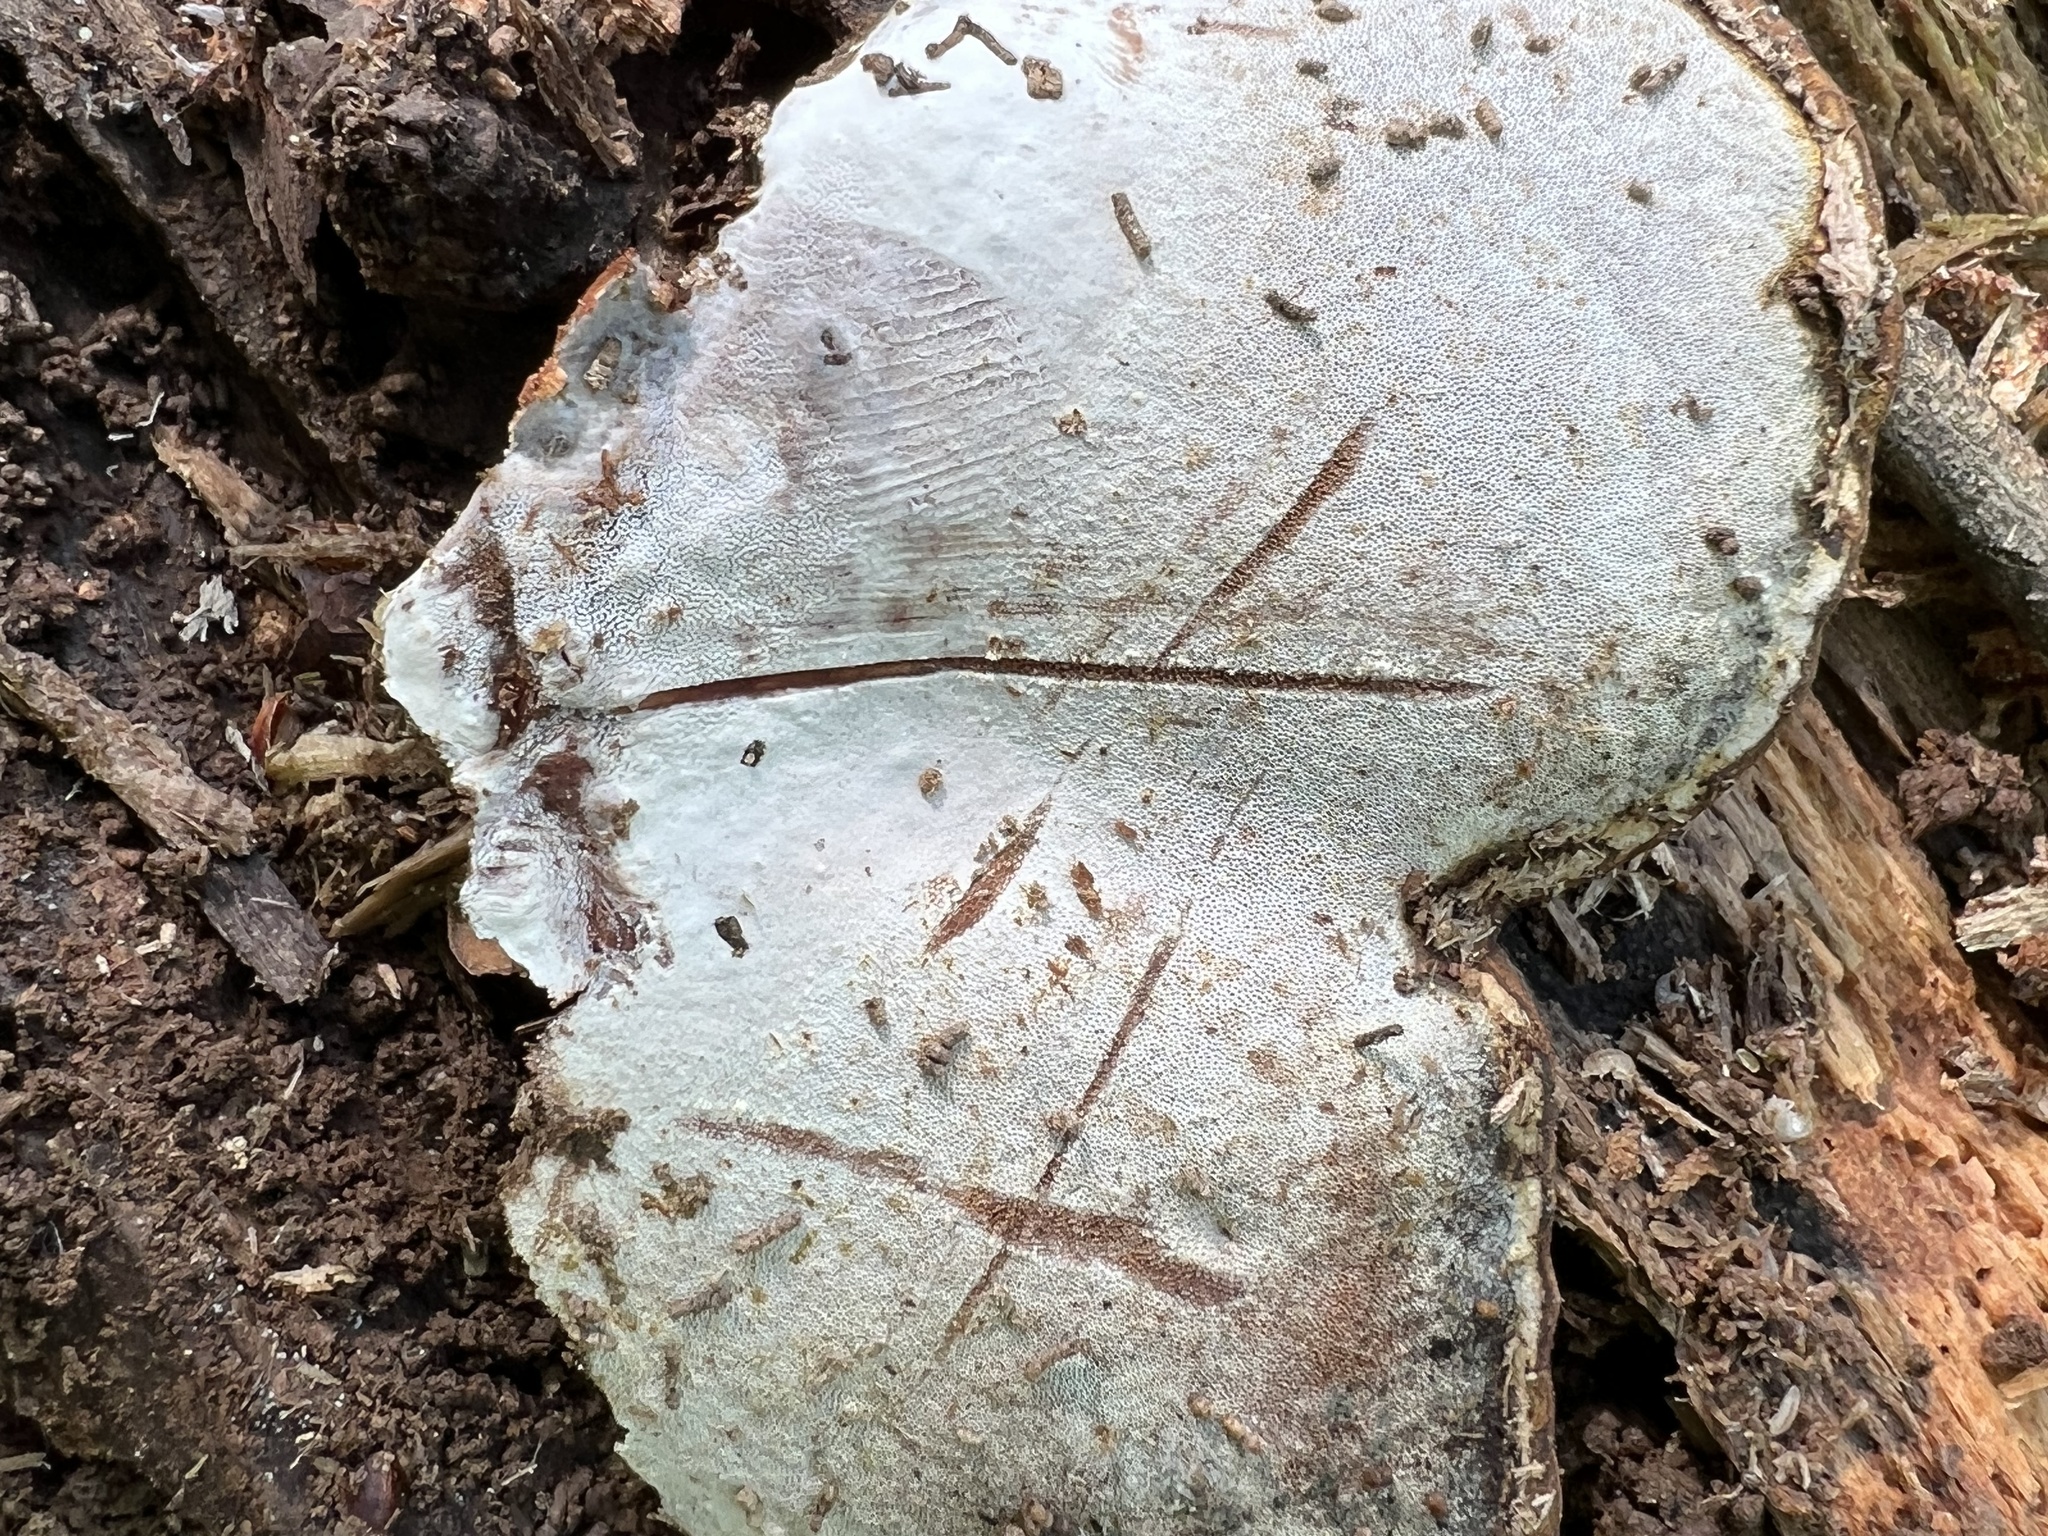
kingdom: Fungi
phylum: Basidiomycota
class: Agaricomycetes
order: Polyporales
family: Polyporaceae
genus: Ganoderma
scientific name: Ganoderma applanatum
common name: Artist's bracket
